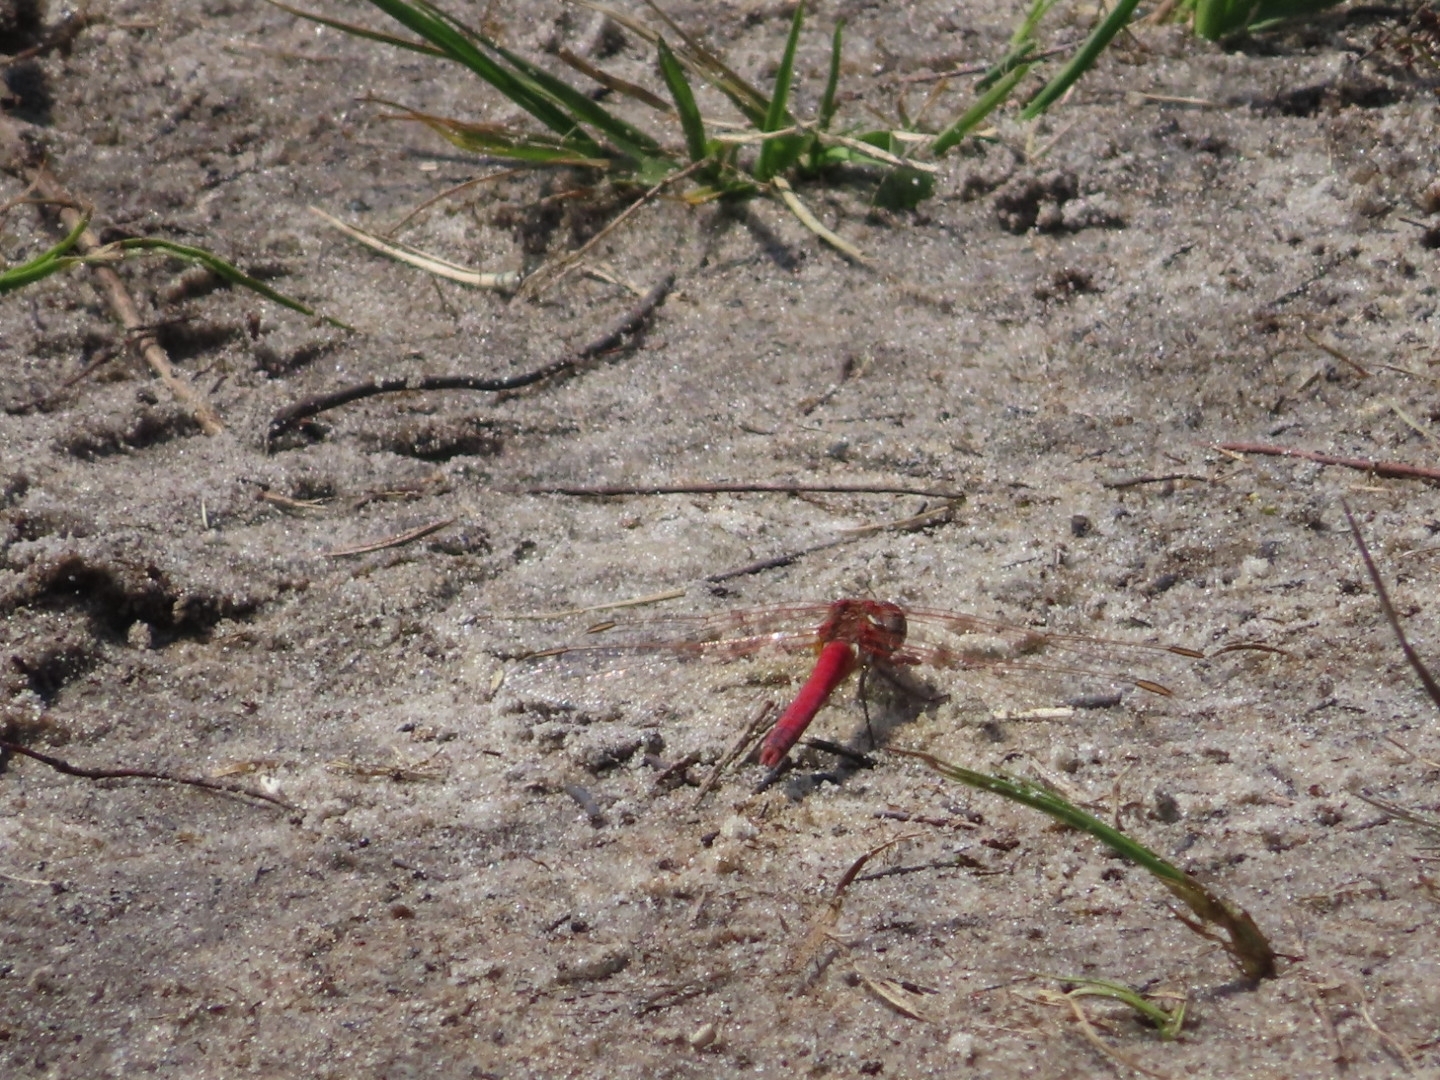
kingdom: Animalia
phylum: Arthropoda
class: Insecta
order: Odonata
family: Libellulidae
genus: Sympetrum
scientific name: Sympetrum fonscolombii
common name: Red-veined darter
